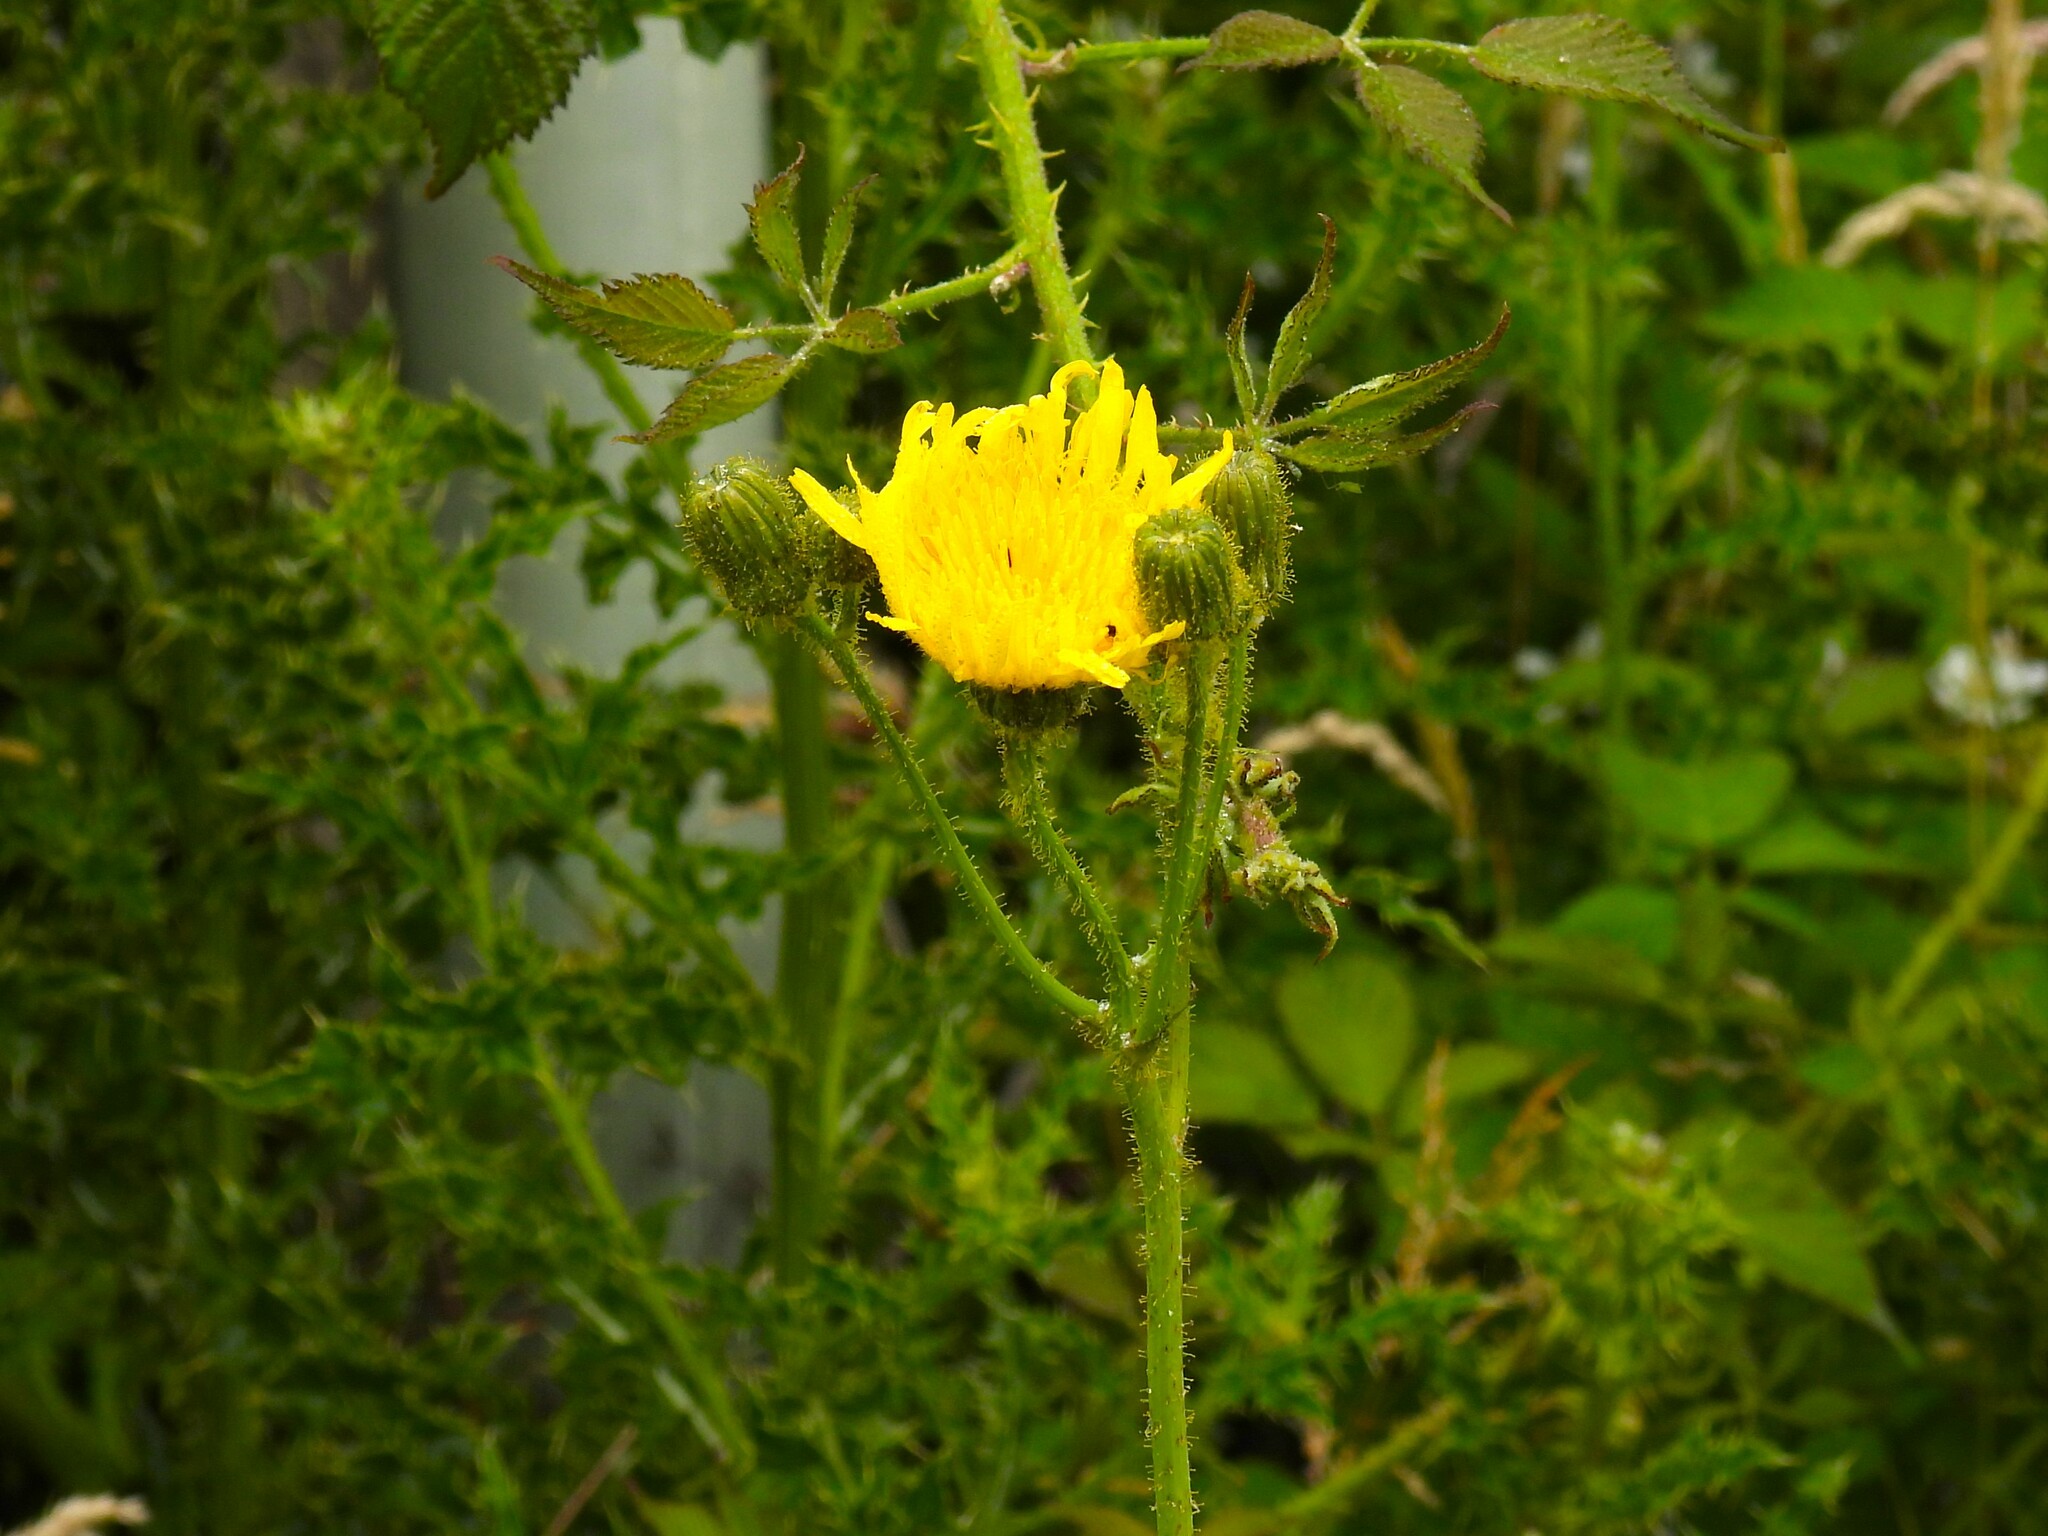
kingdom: Plantae
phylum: Tracheophyta
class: Magnoliopsida
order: Asterales
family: Asteraceae
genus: Sonchus
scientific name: Sonchus arvensis
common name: Perennial sow-thistle
